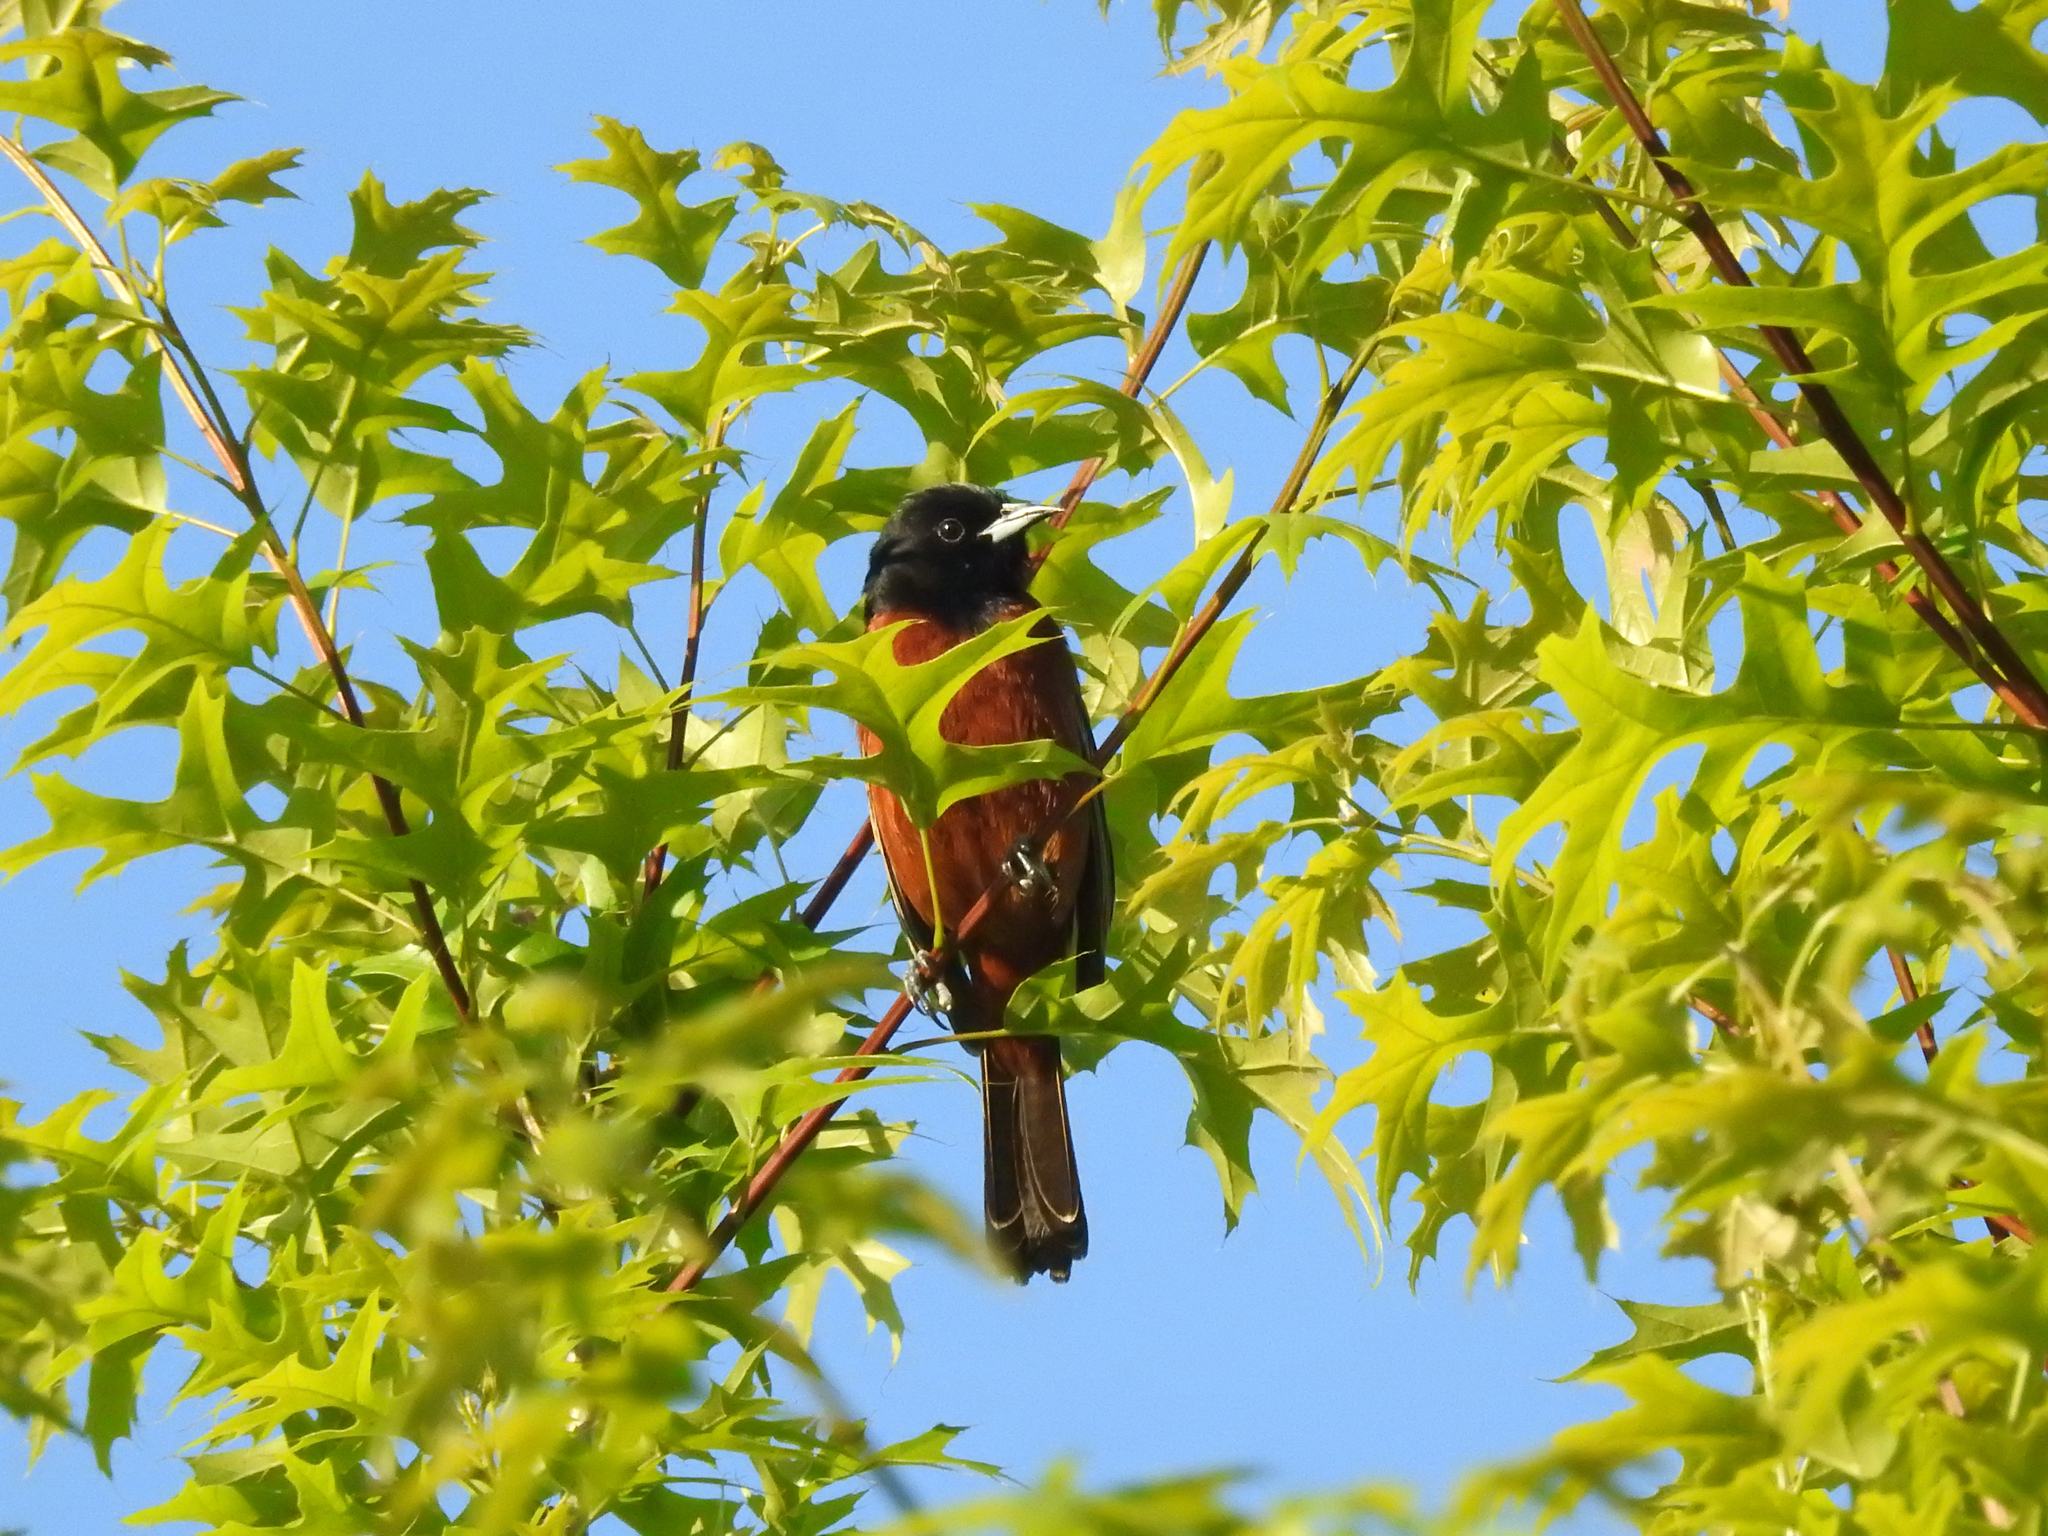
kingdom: Animalia
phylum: Chordata
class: Aves
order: Passeriformes
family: Icteridae
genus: Icterus
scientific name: Icterus spurius
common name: Orchard oriole
